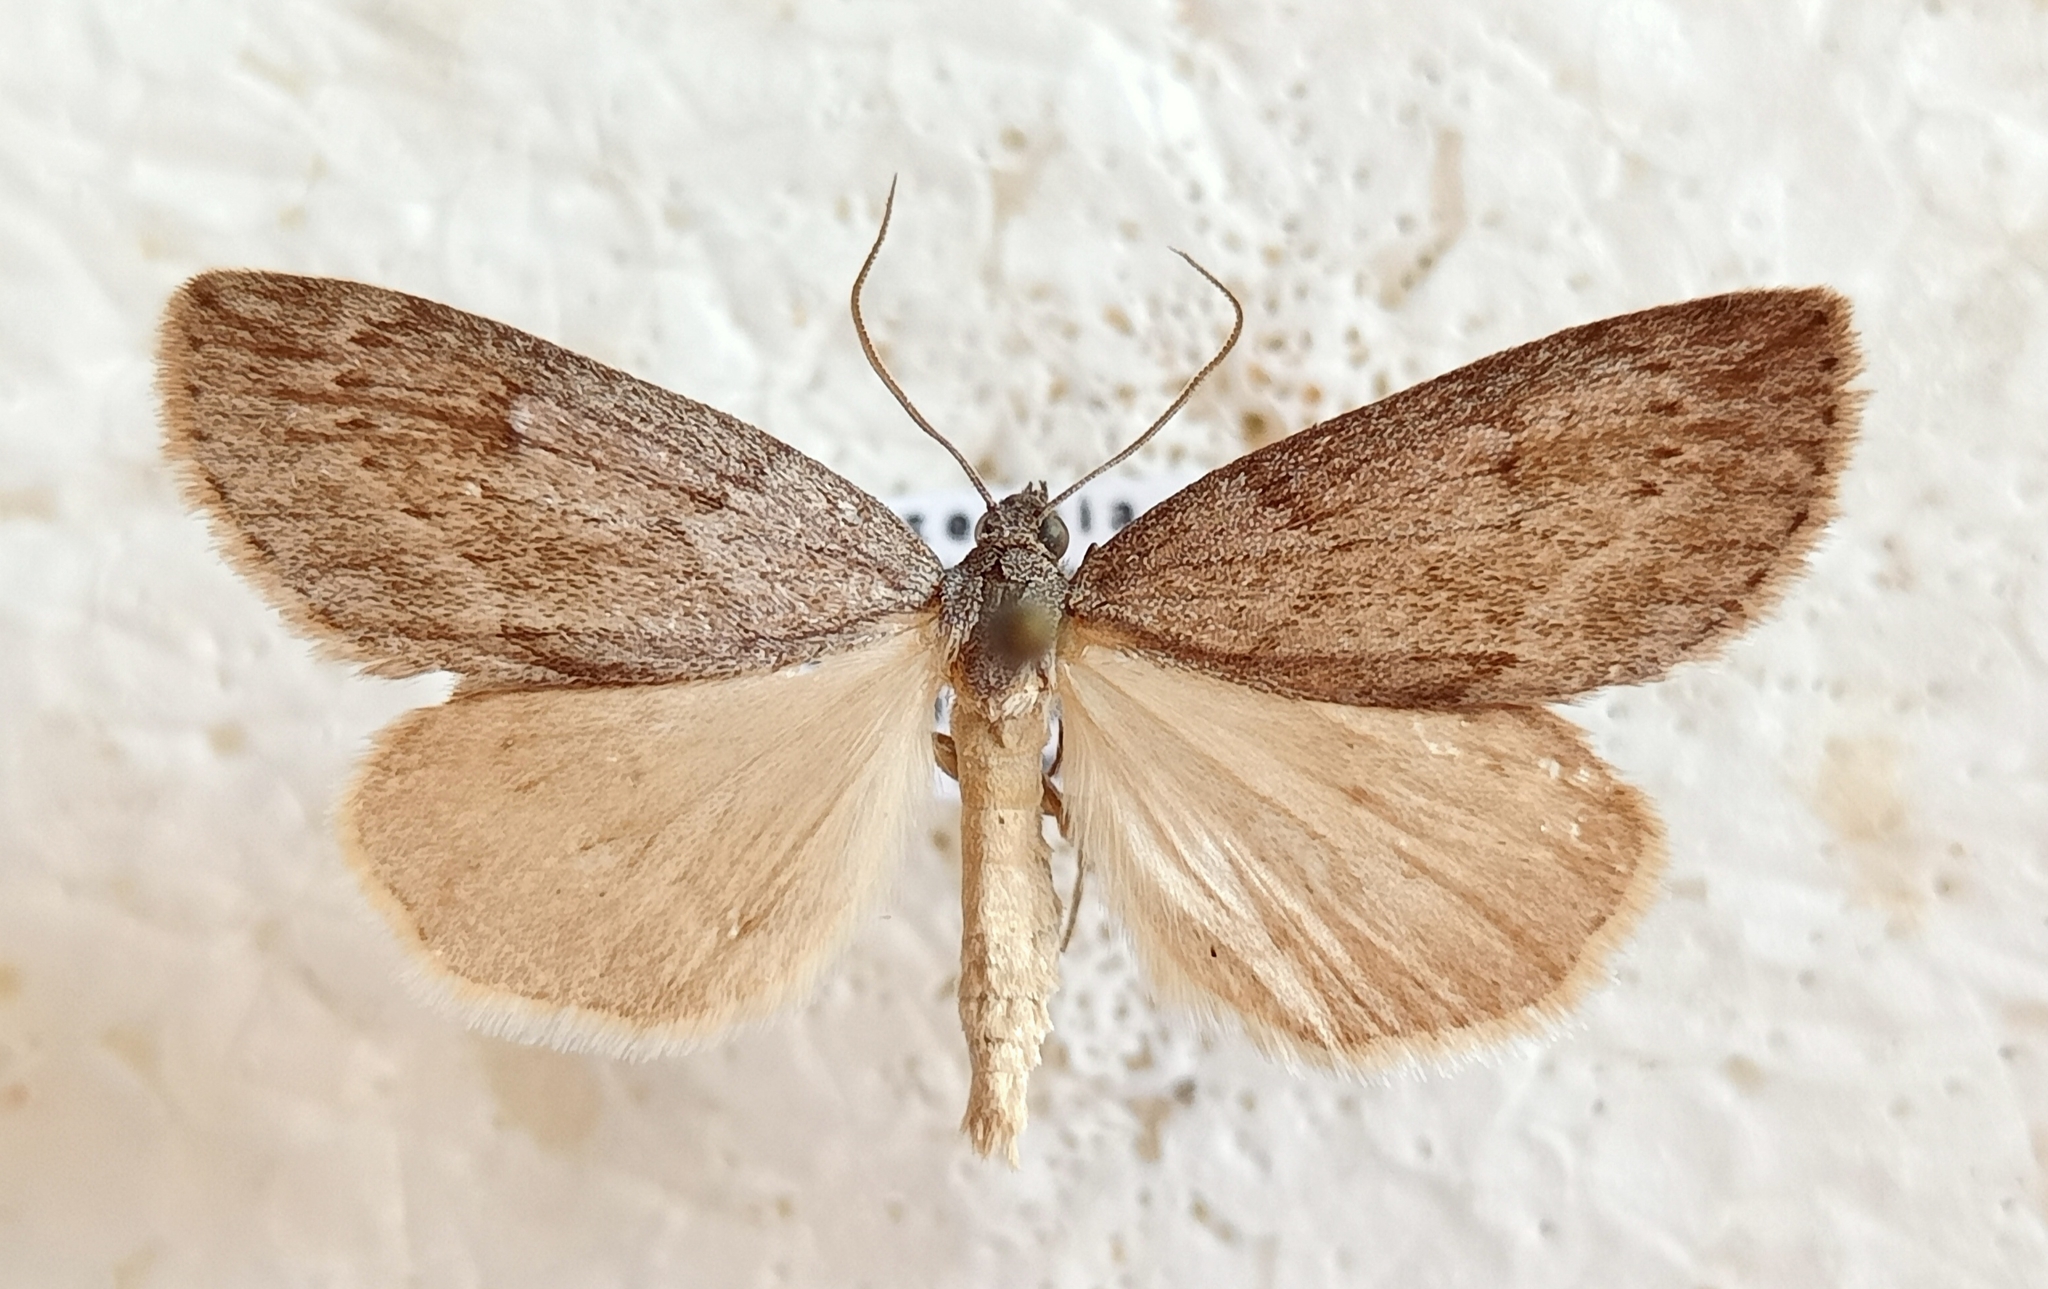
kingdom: Animalia
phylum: Arthropoda
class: Insecta
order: Lepidoptera
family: Geometridae
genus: Pachycnemia
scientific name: Pachycnemia hippocastanaria
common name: Horse chestnut
